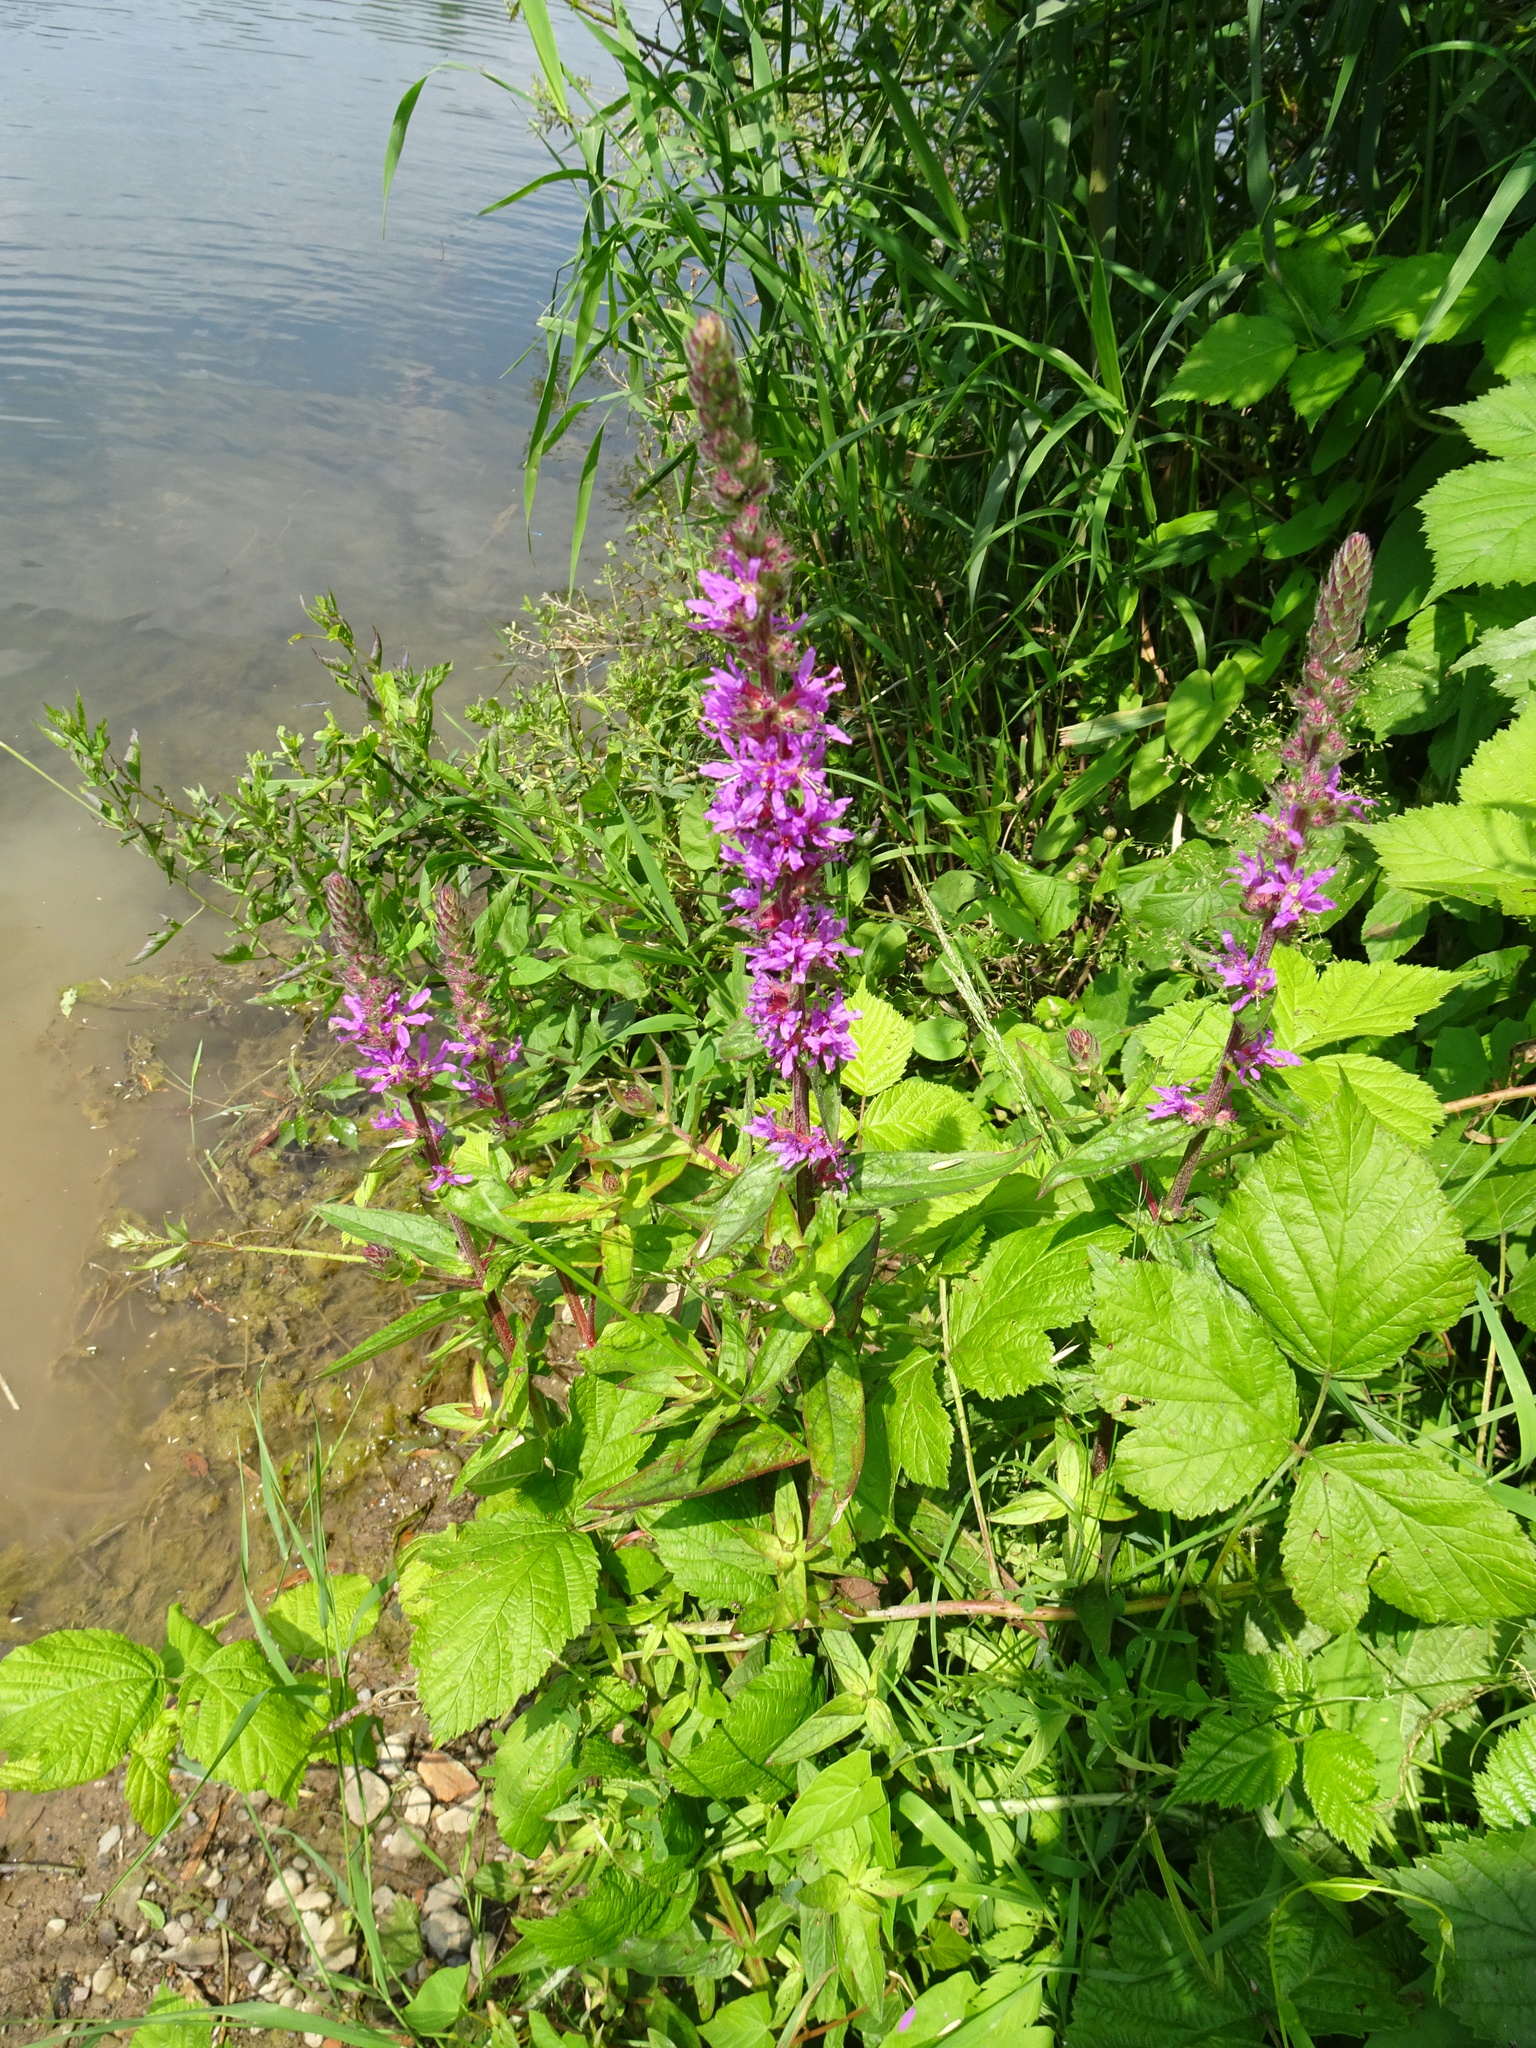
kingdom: Plantae
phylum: Tracheophyta
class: Magnoliopsida
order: Myrtales
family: Lythraceae
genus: Lythrum
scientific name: Lythrum salicaria
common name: Purple loosestrife
